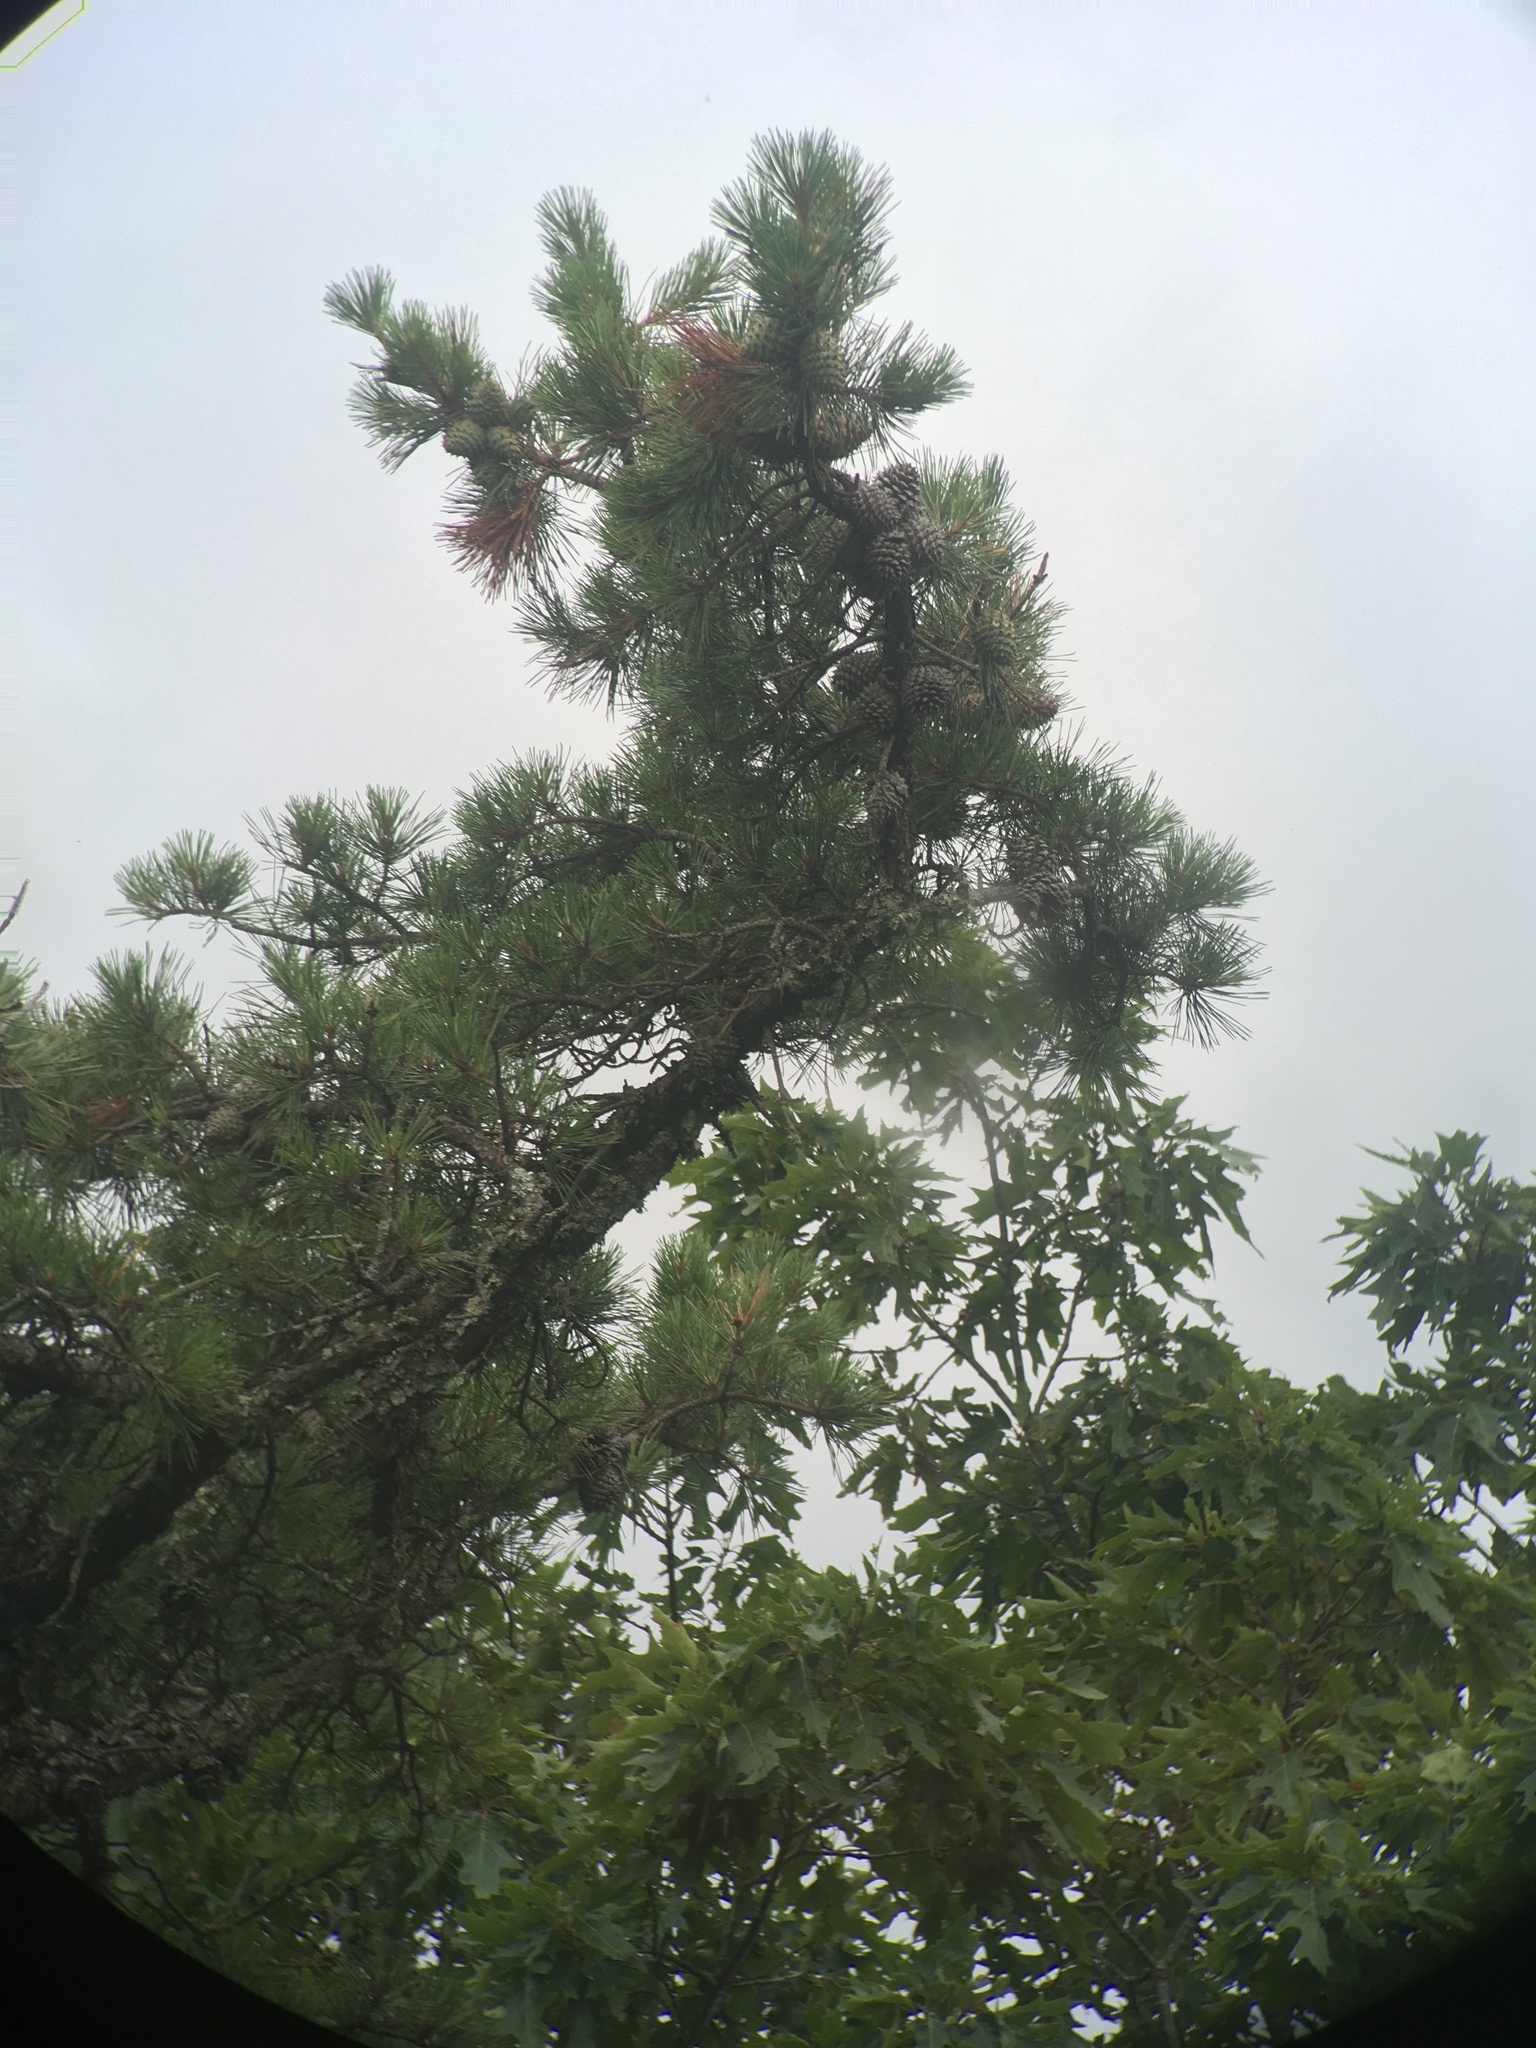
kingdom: Plantae
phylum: Tracheophyta
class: Pinopsida
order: Pinales
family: Pinaceae
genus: Pinus
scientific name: Pinus pungens
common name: Hickory pine
